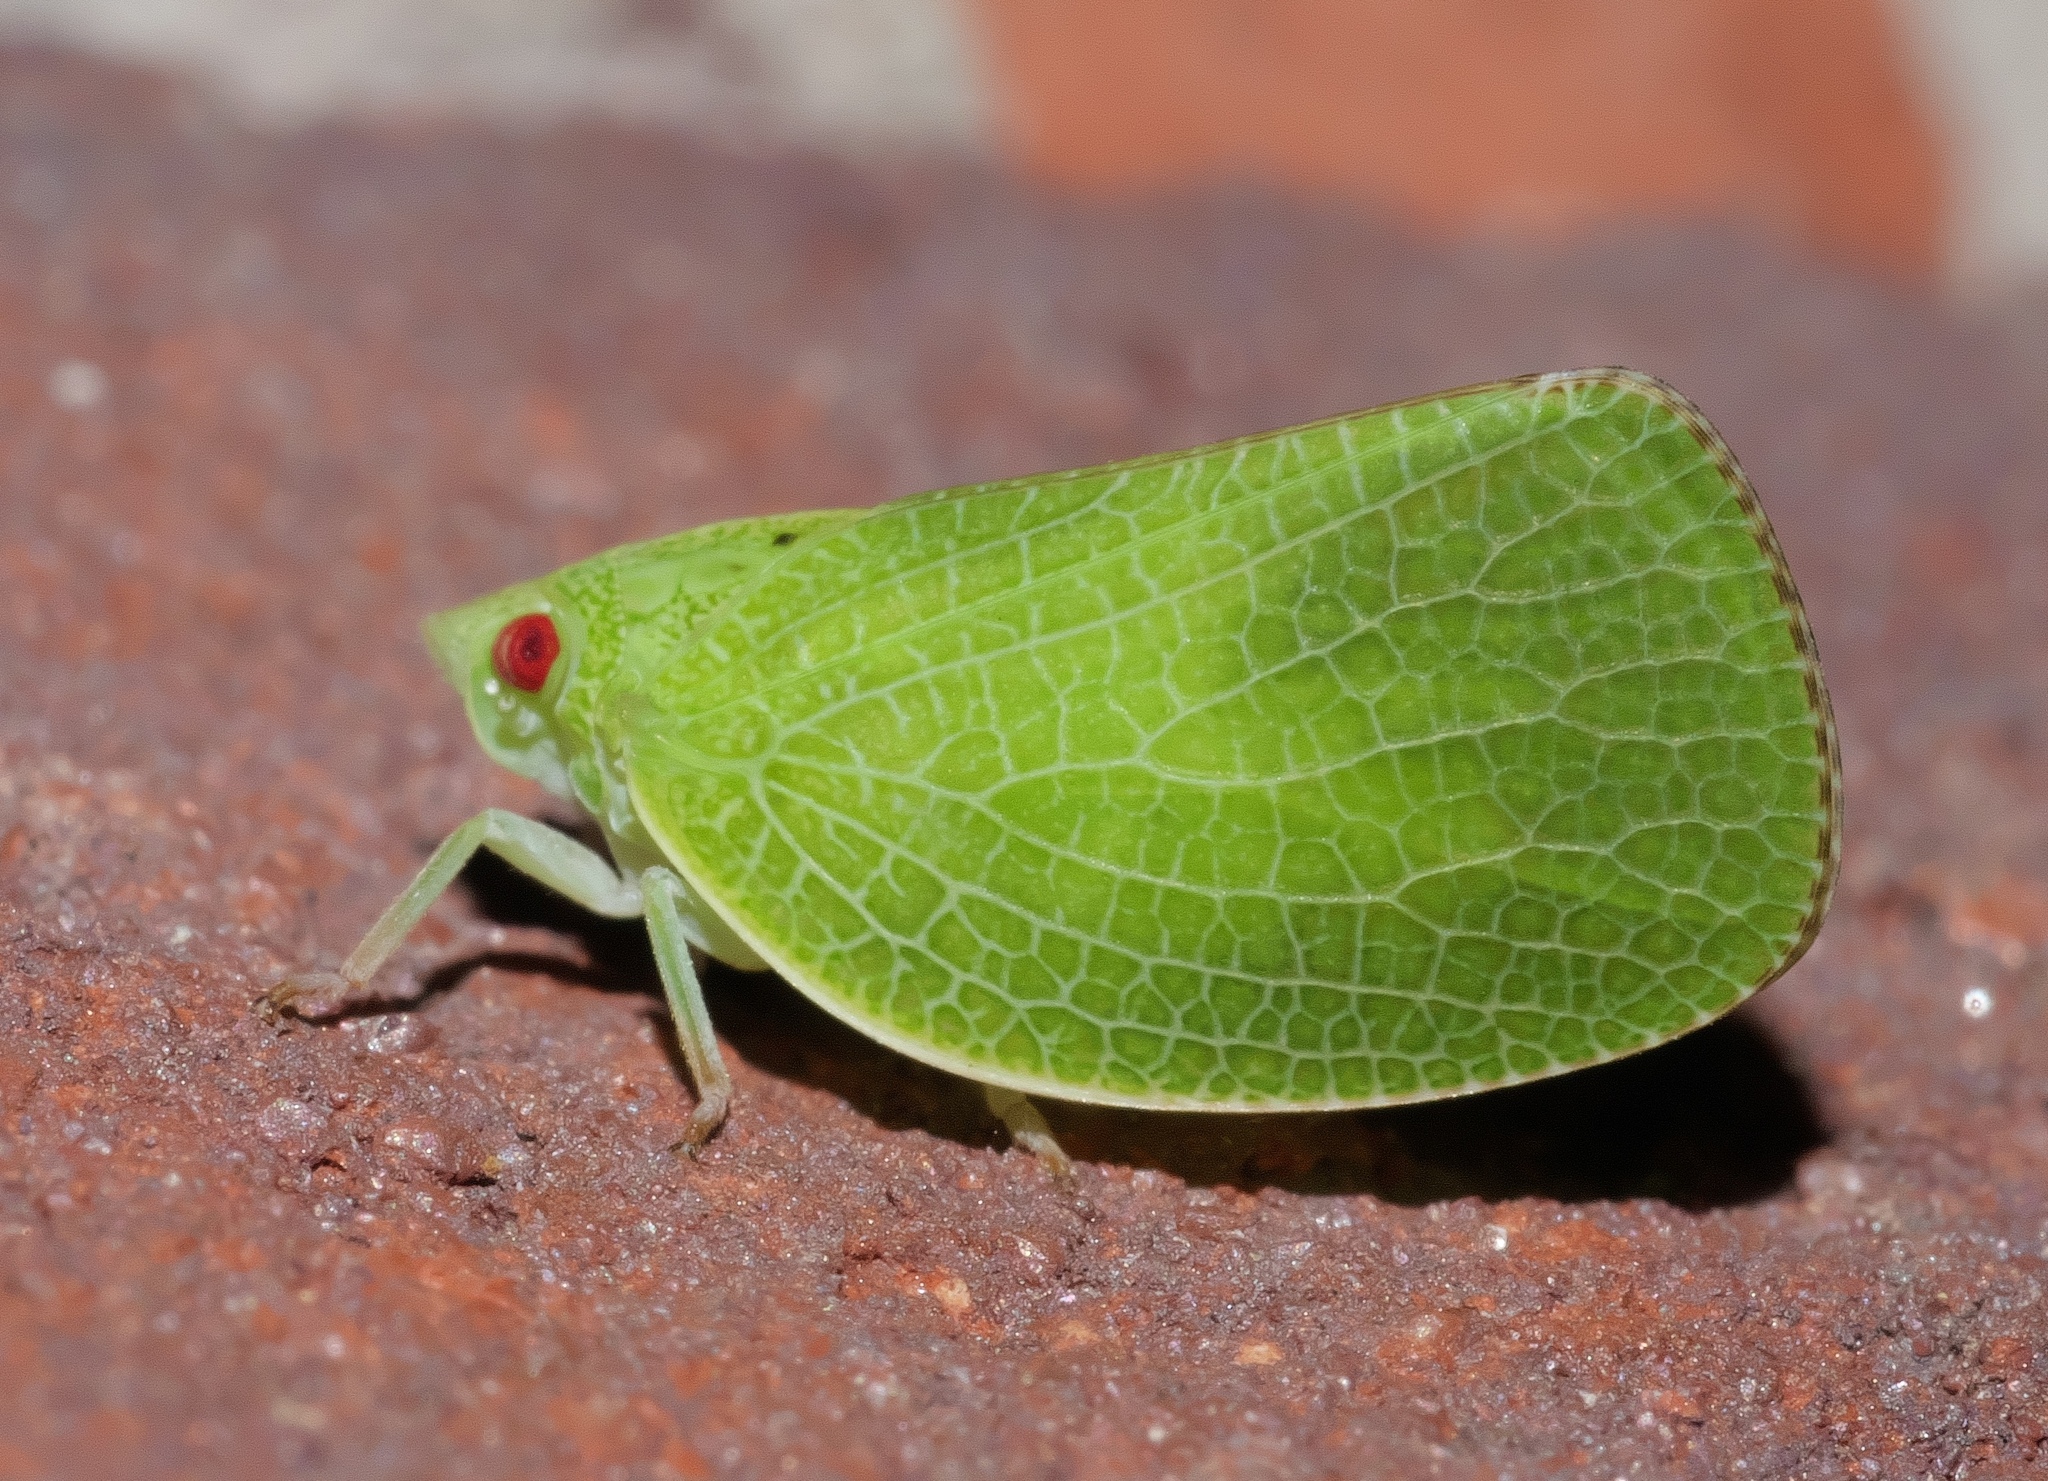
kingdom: Animalia
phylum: Arthropoda
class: Insecta
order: Hemiptera
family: Acanaloniidae
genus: Acanalonia
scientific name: Acanalonia conica
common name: Green cone-headed planthopper
